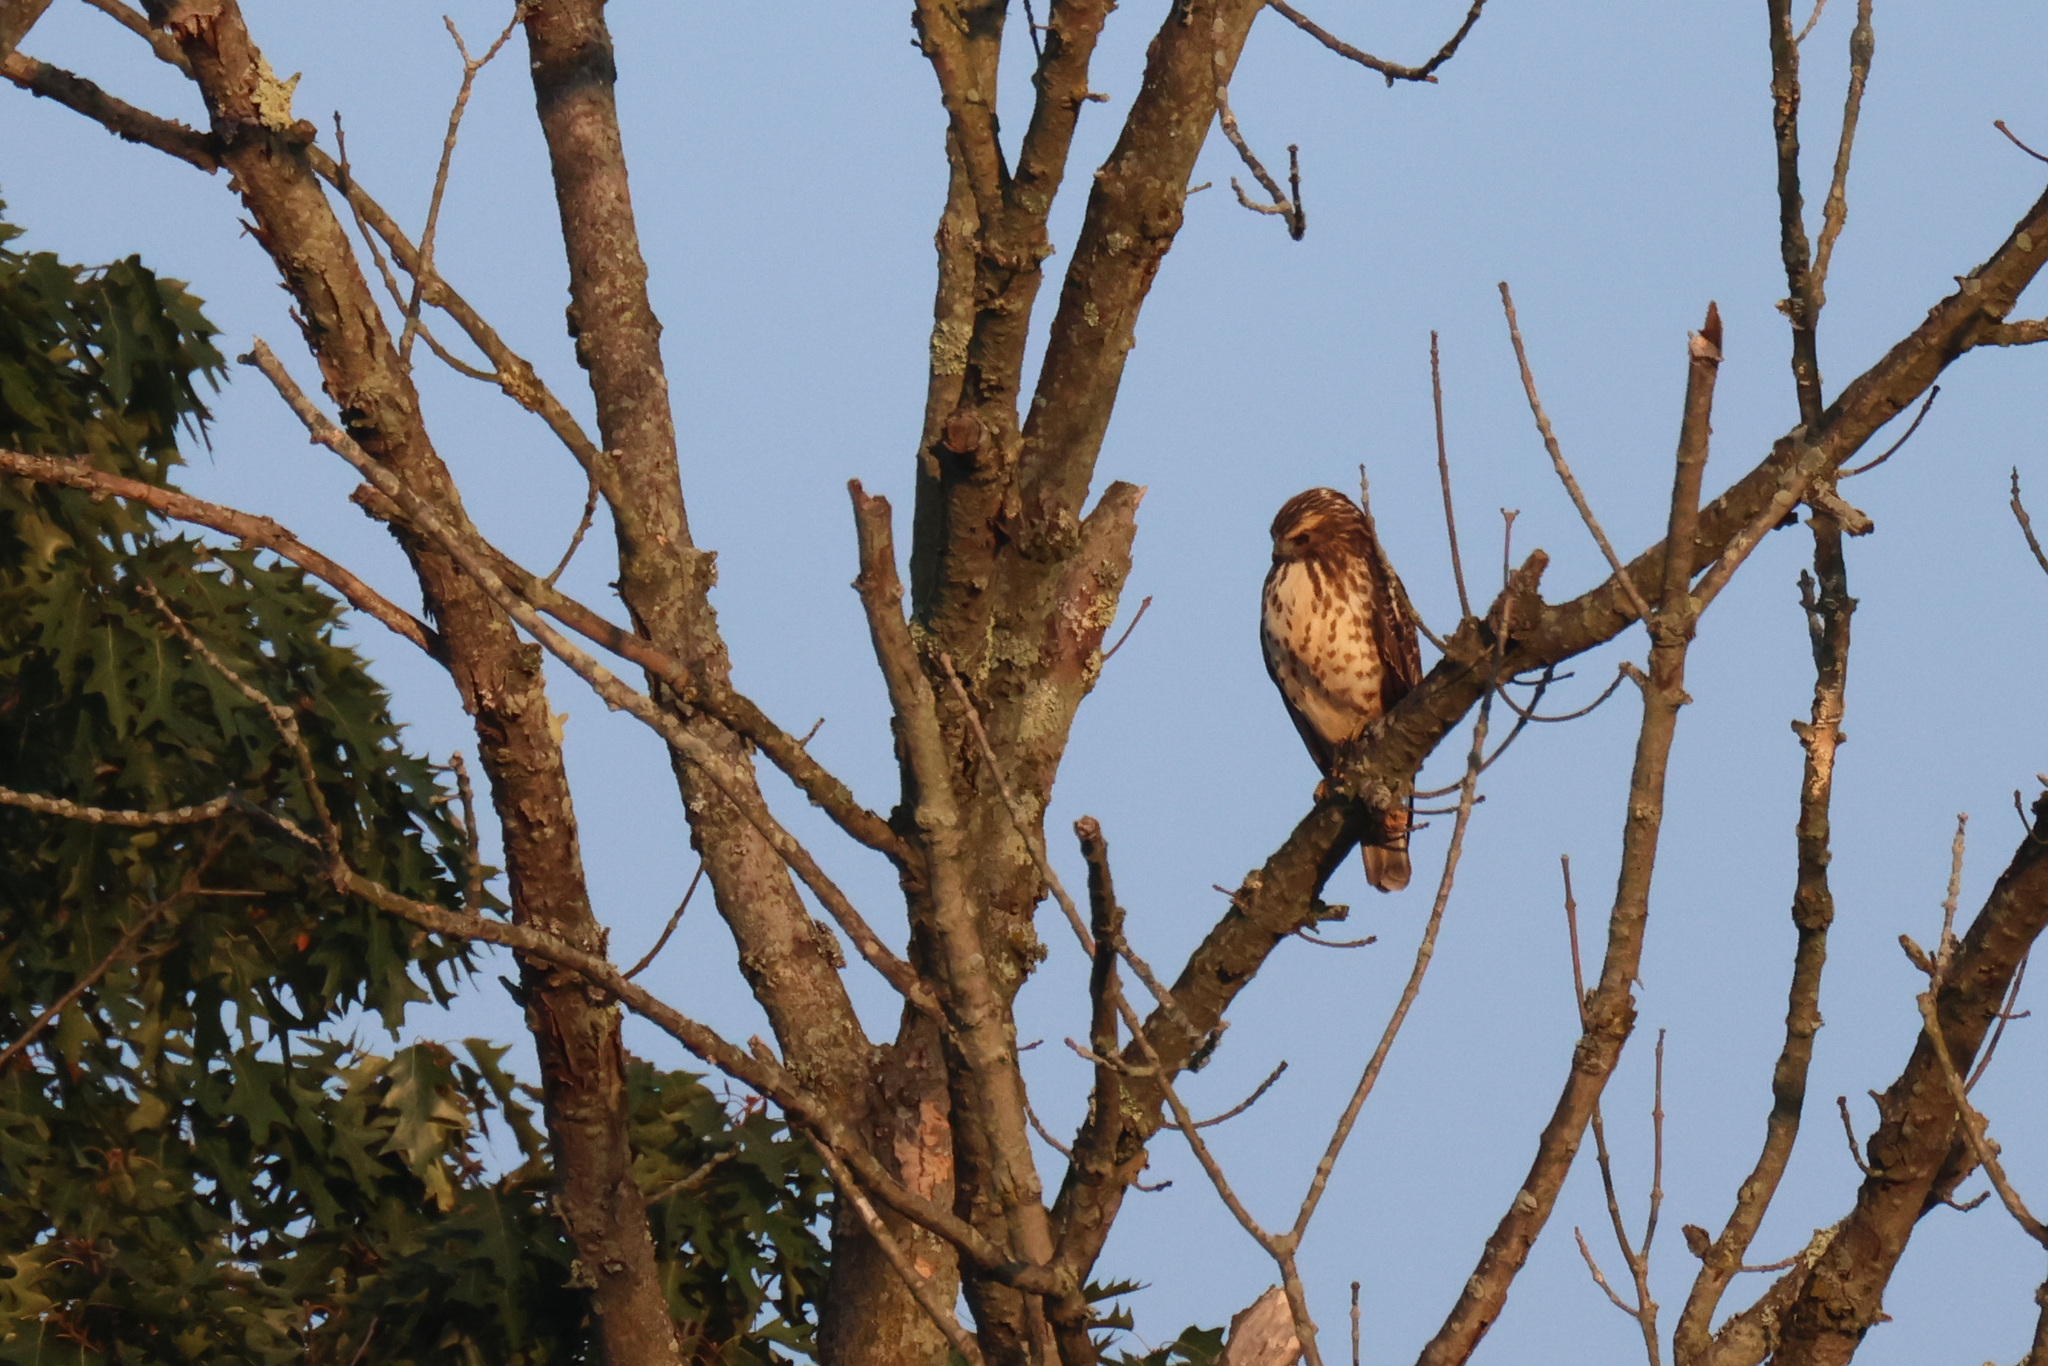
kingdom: Animalia
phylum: Chordata
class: Aves
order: Accipitriformes
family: Accipitridae
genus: Buteo
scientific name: Buteo platypterus
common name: Broad-winged hawk
